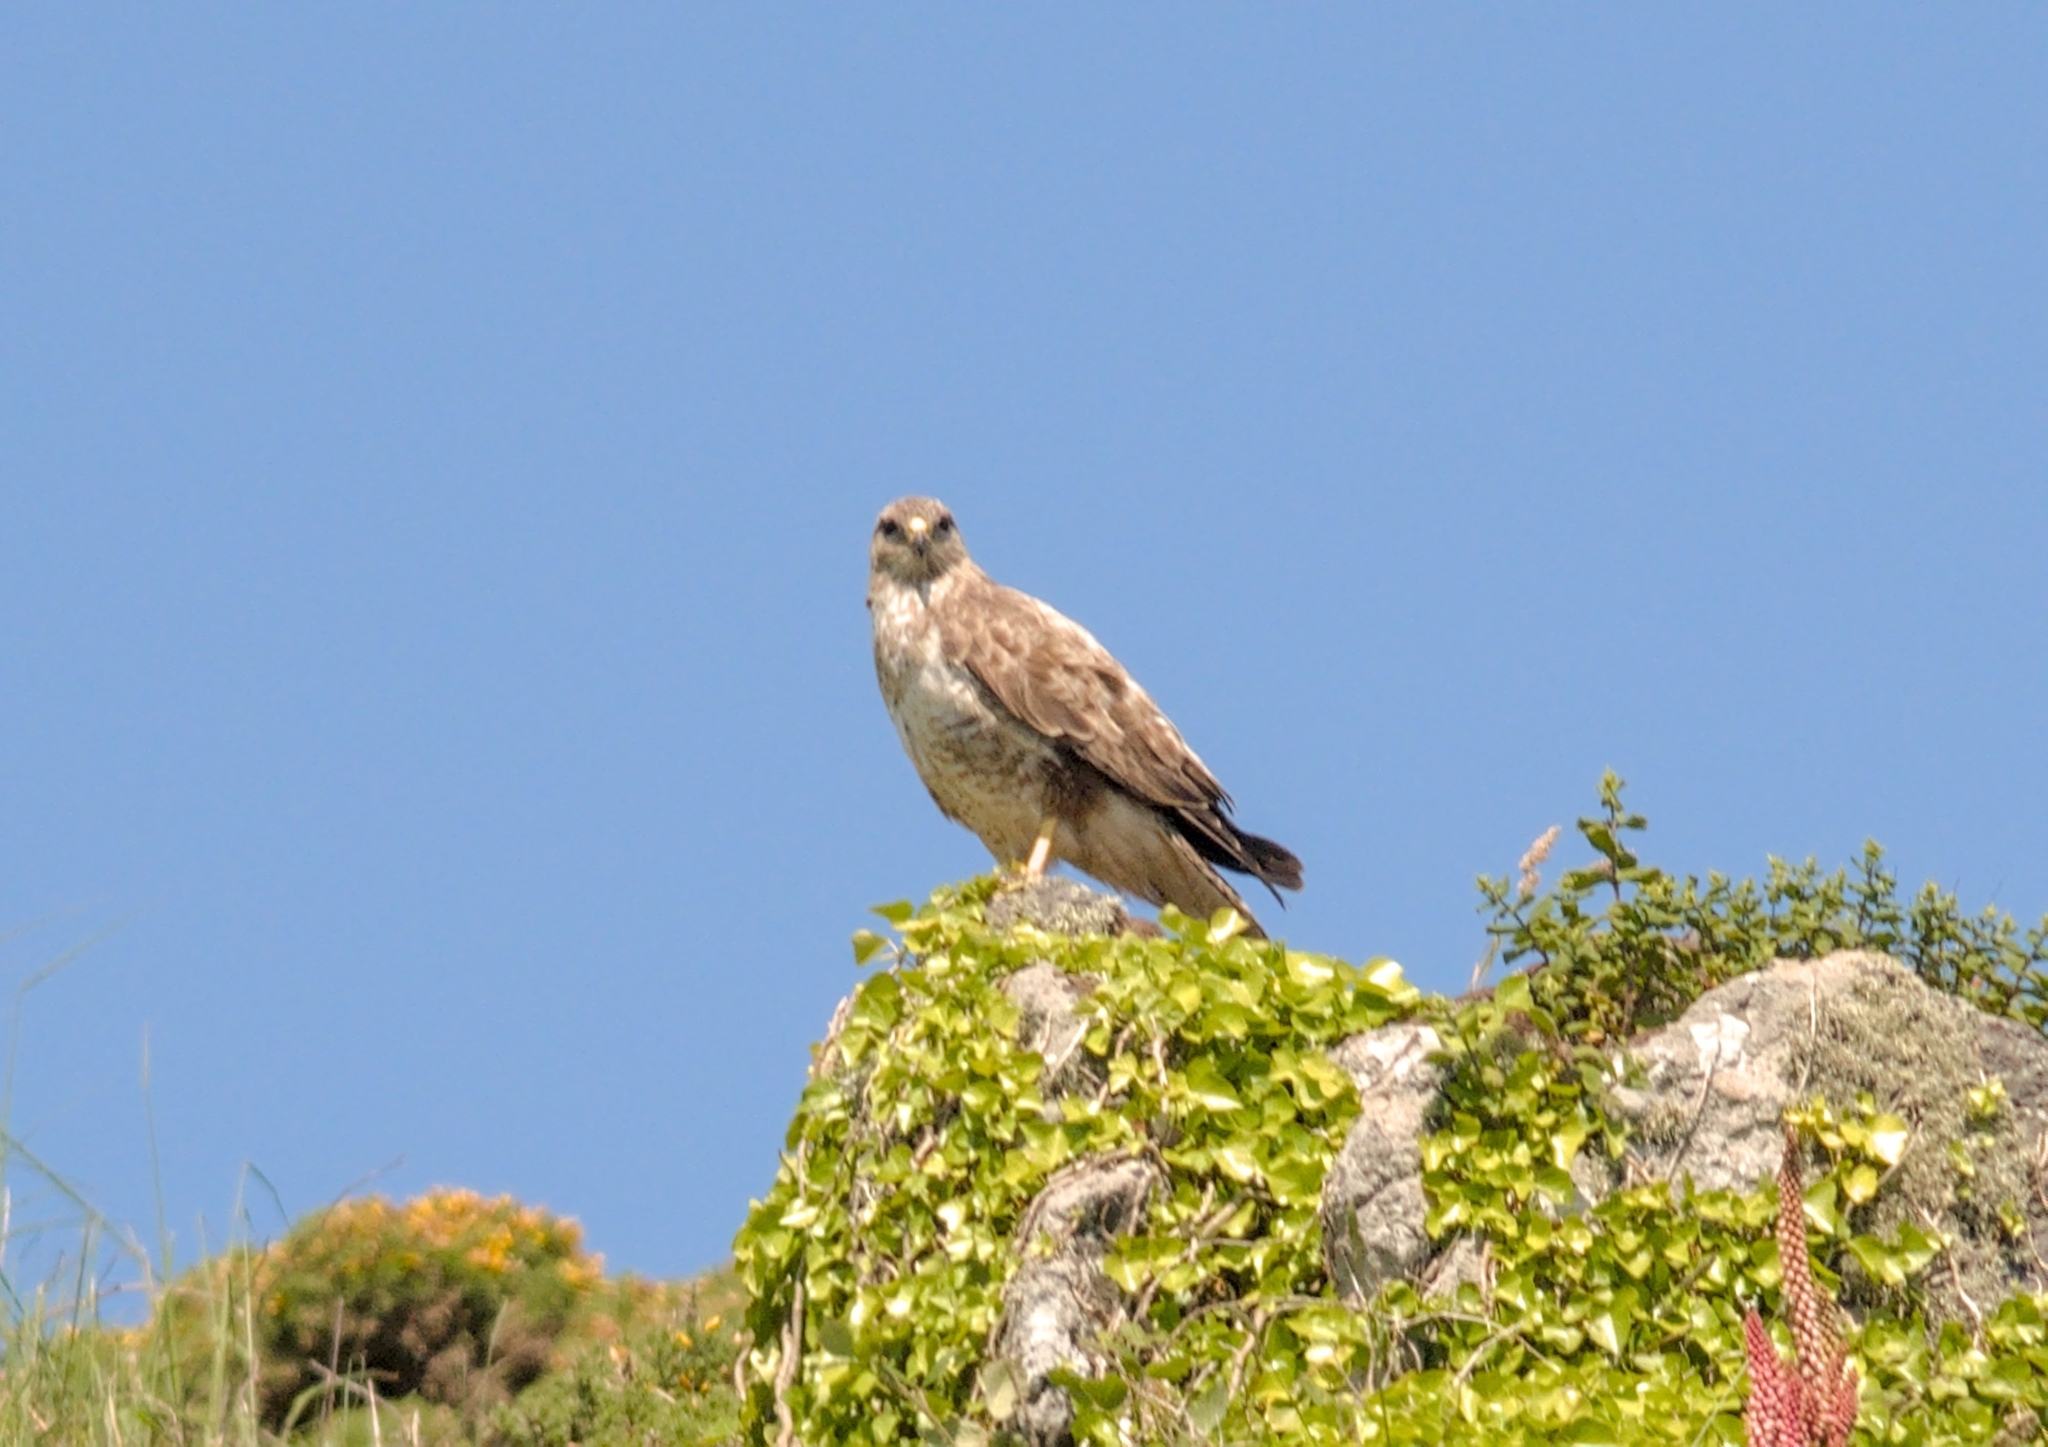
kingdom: Animalia
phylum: Chordata
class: Aves
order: Accipitriformes
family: Accipitridae
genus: Buteo
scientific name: Buteo buteo
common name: Common buzzard
